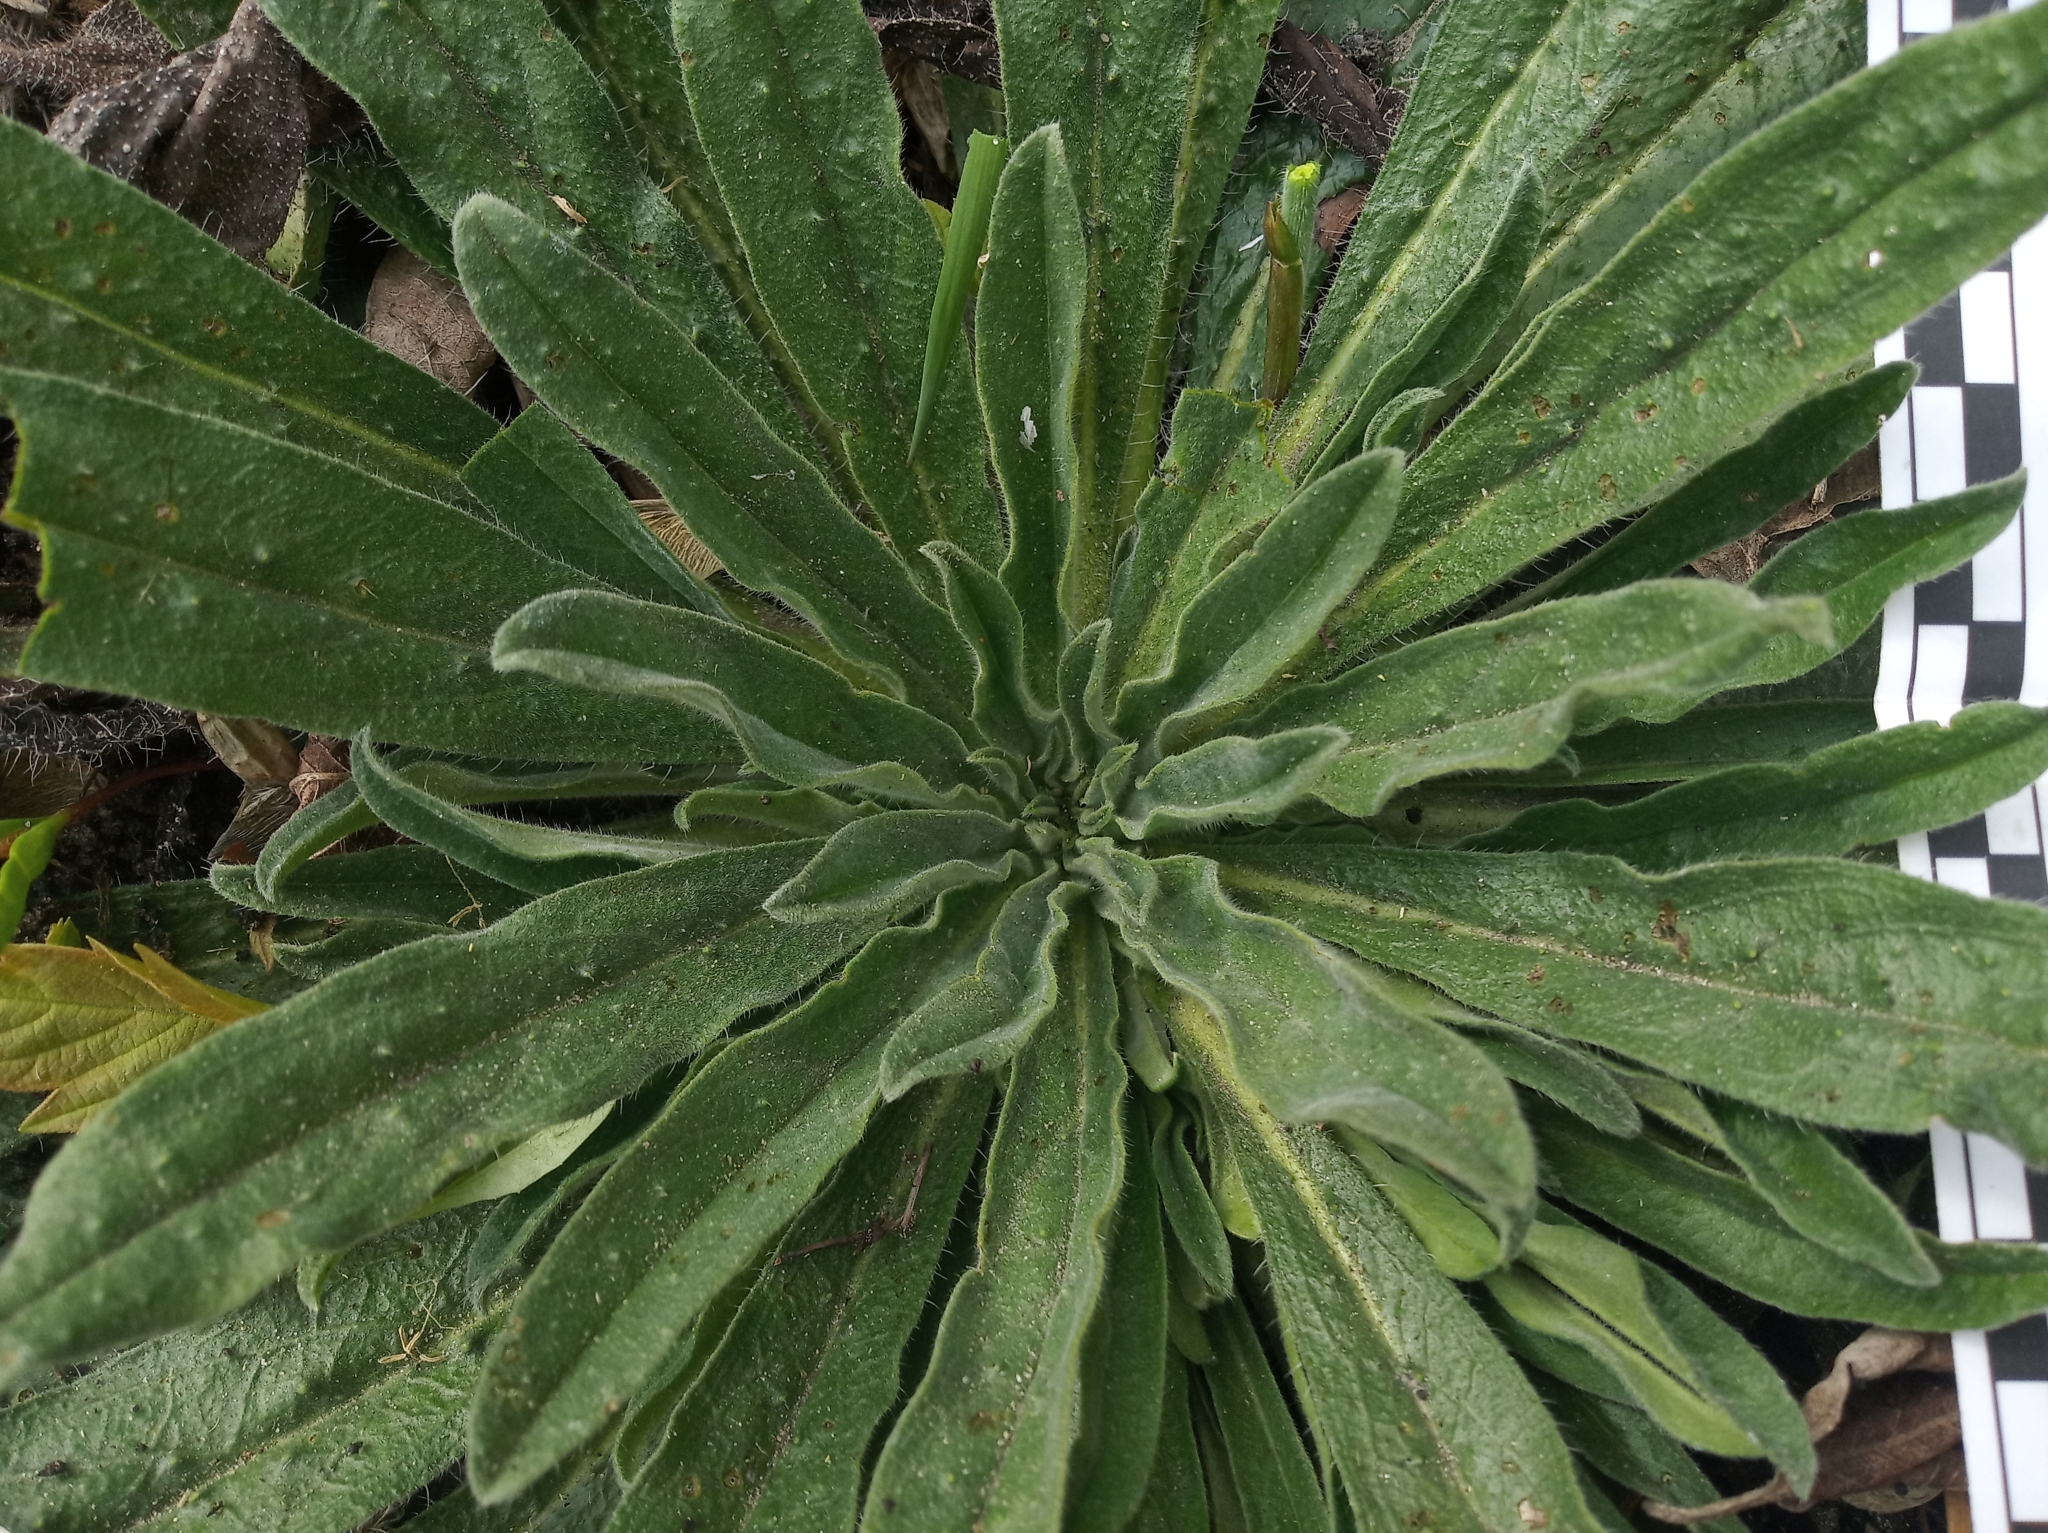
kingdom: Plantae
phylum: Tracheophyta
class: Magnoliopsida
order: Boraginales
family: Boraginaceae
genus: Echium
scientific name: Echium vulgare
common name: Common viper's bugloss
